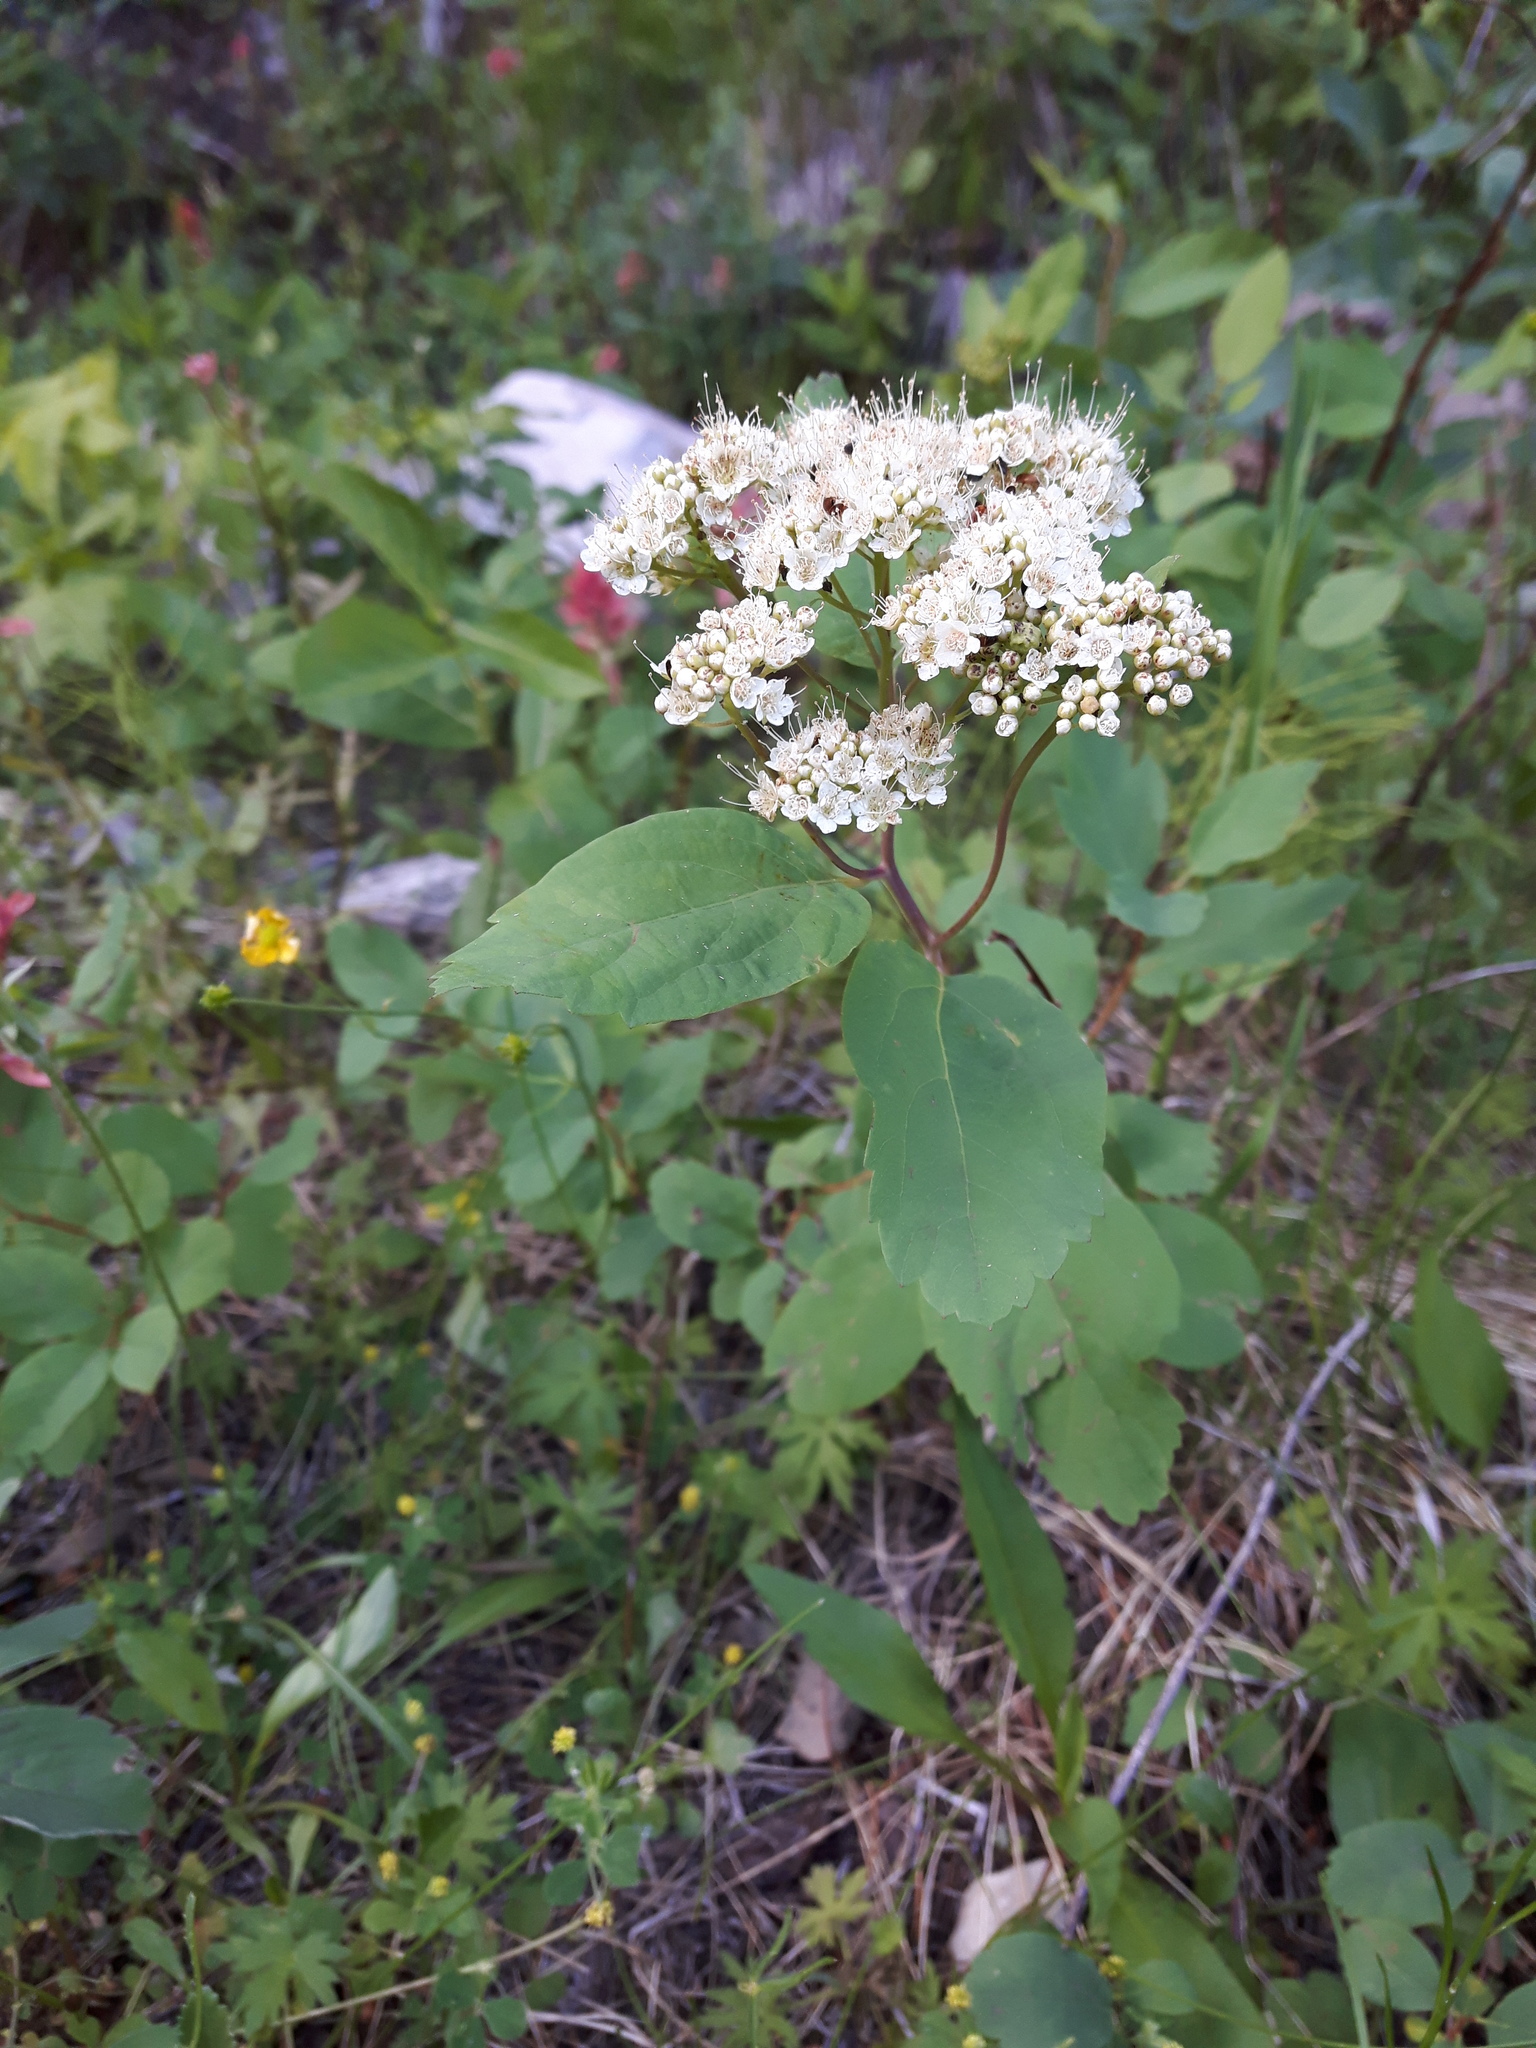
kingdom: Plantae
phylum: Tracheophyta
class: Magnoliopsida
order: Rosales
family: Rosaceae
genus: Spiraea
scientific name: Spiraea lucida
